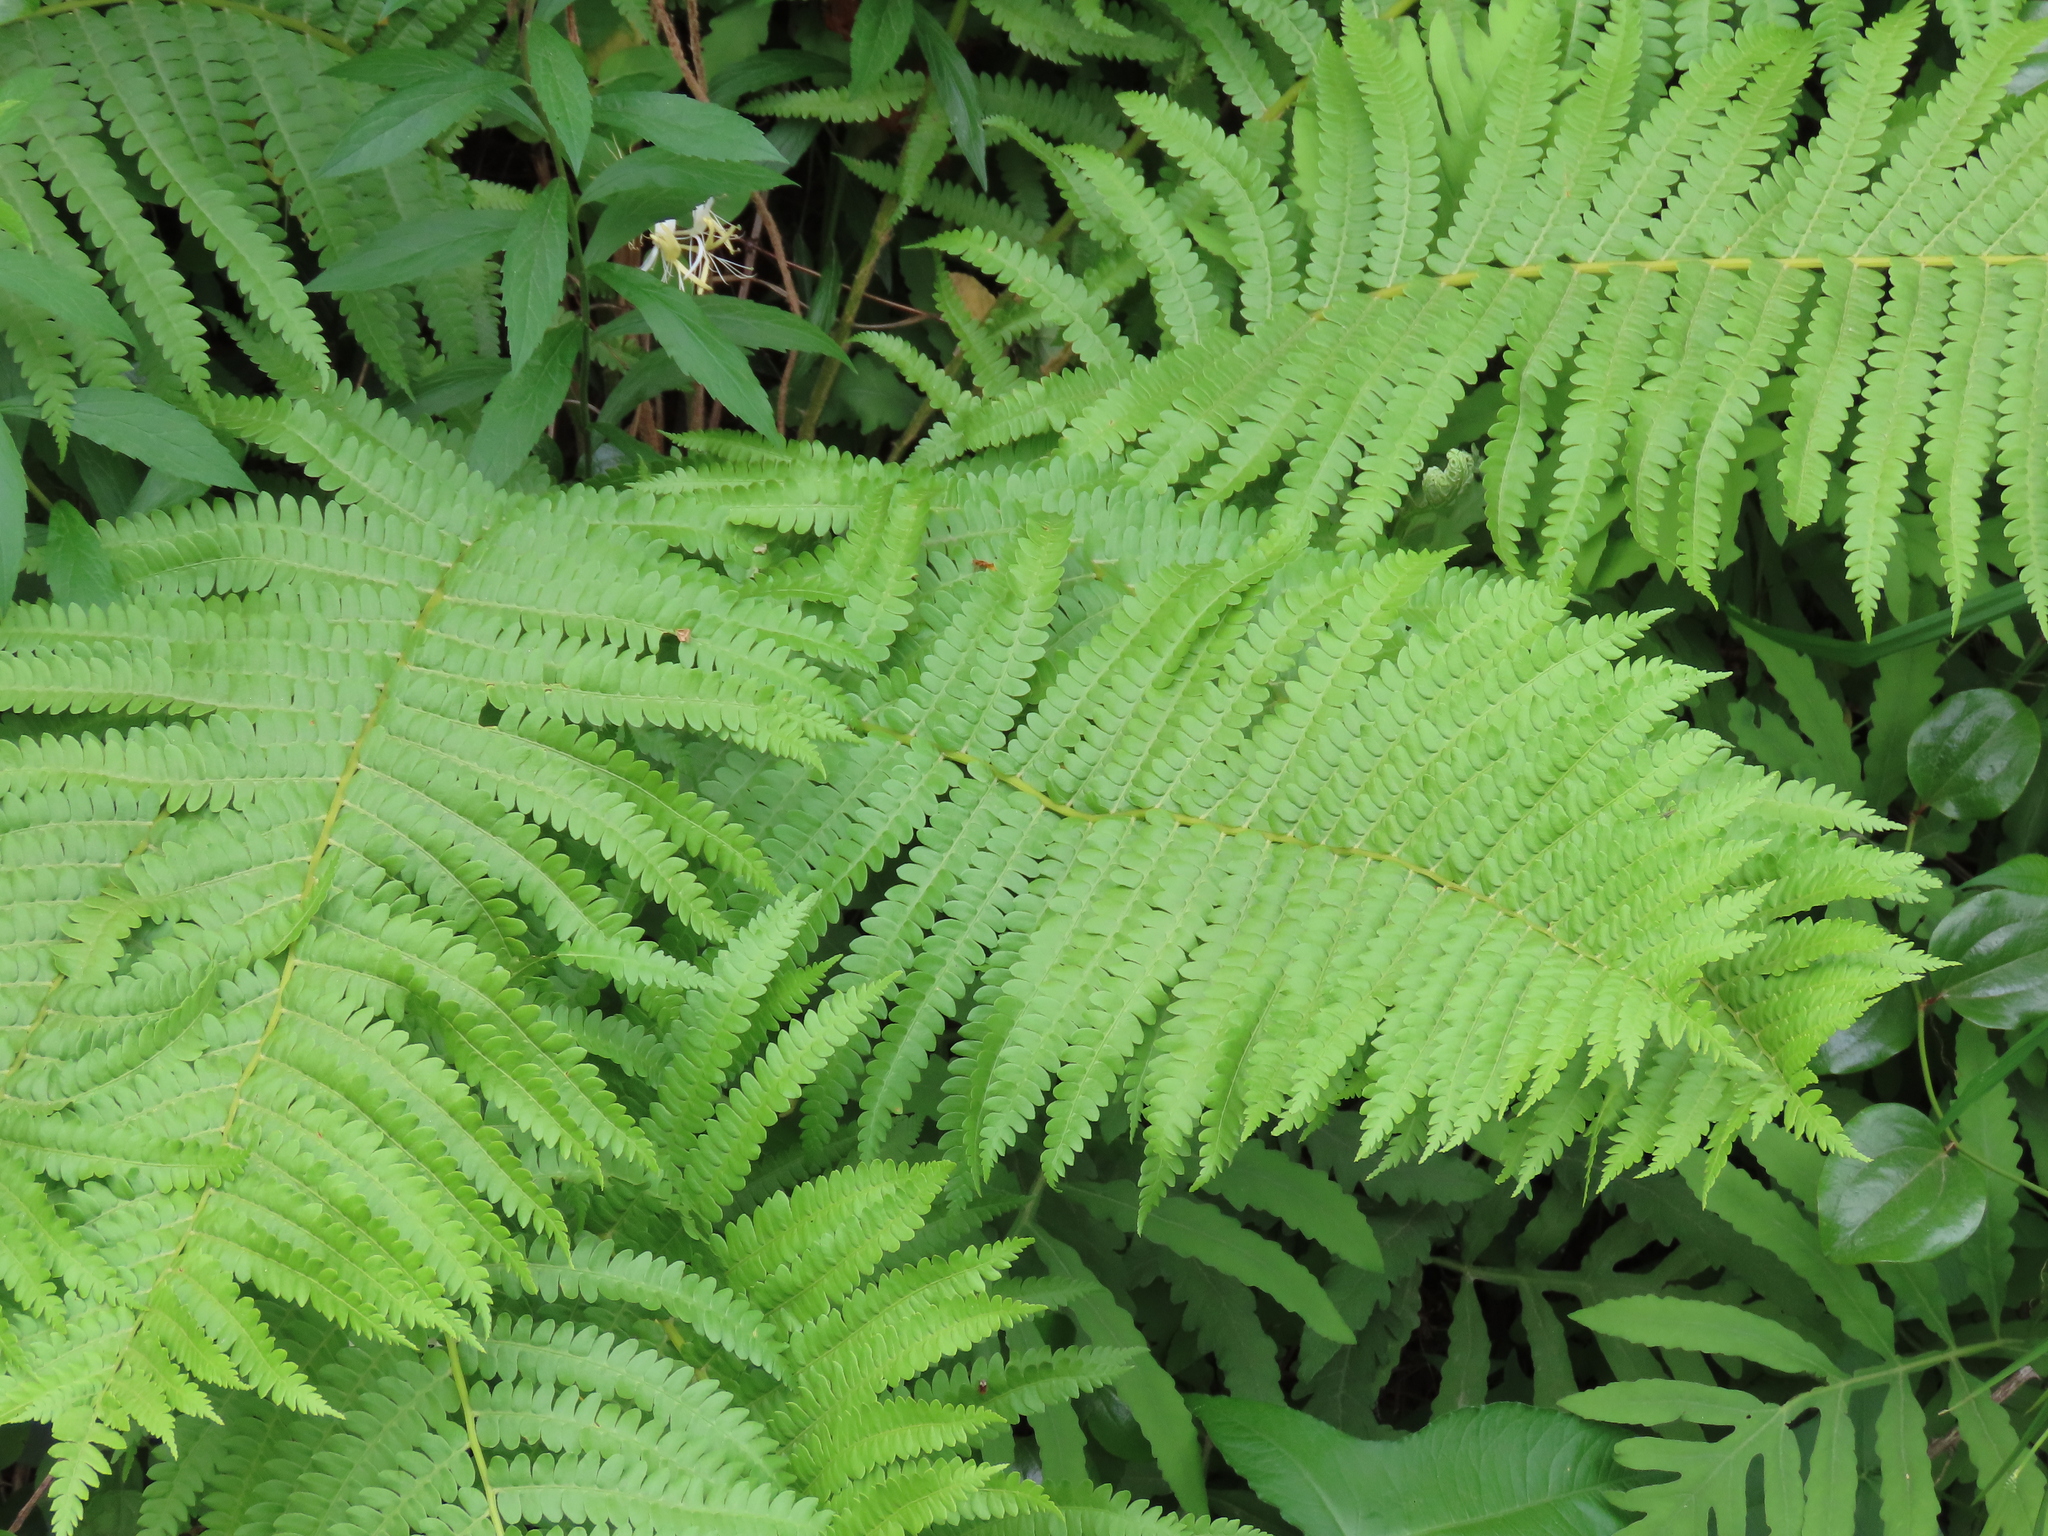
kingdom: Plantae
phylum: Tracheophyta
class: Polypodiopsida
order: Osmundales
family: Osmundaceae
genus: Osmundastrum
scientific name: Osmundastrum cinnamomeum
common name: Cinnamon fern
